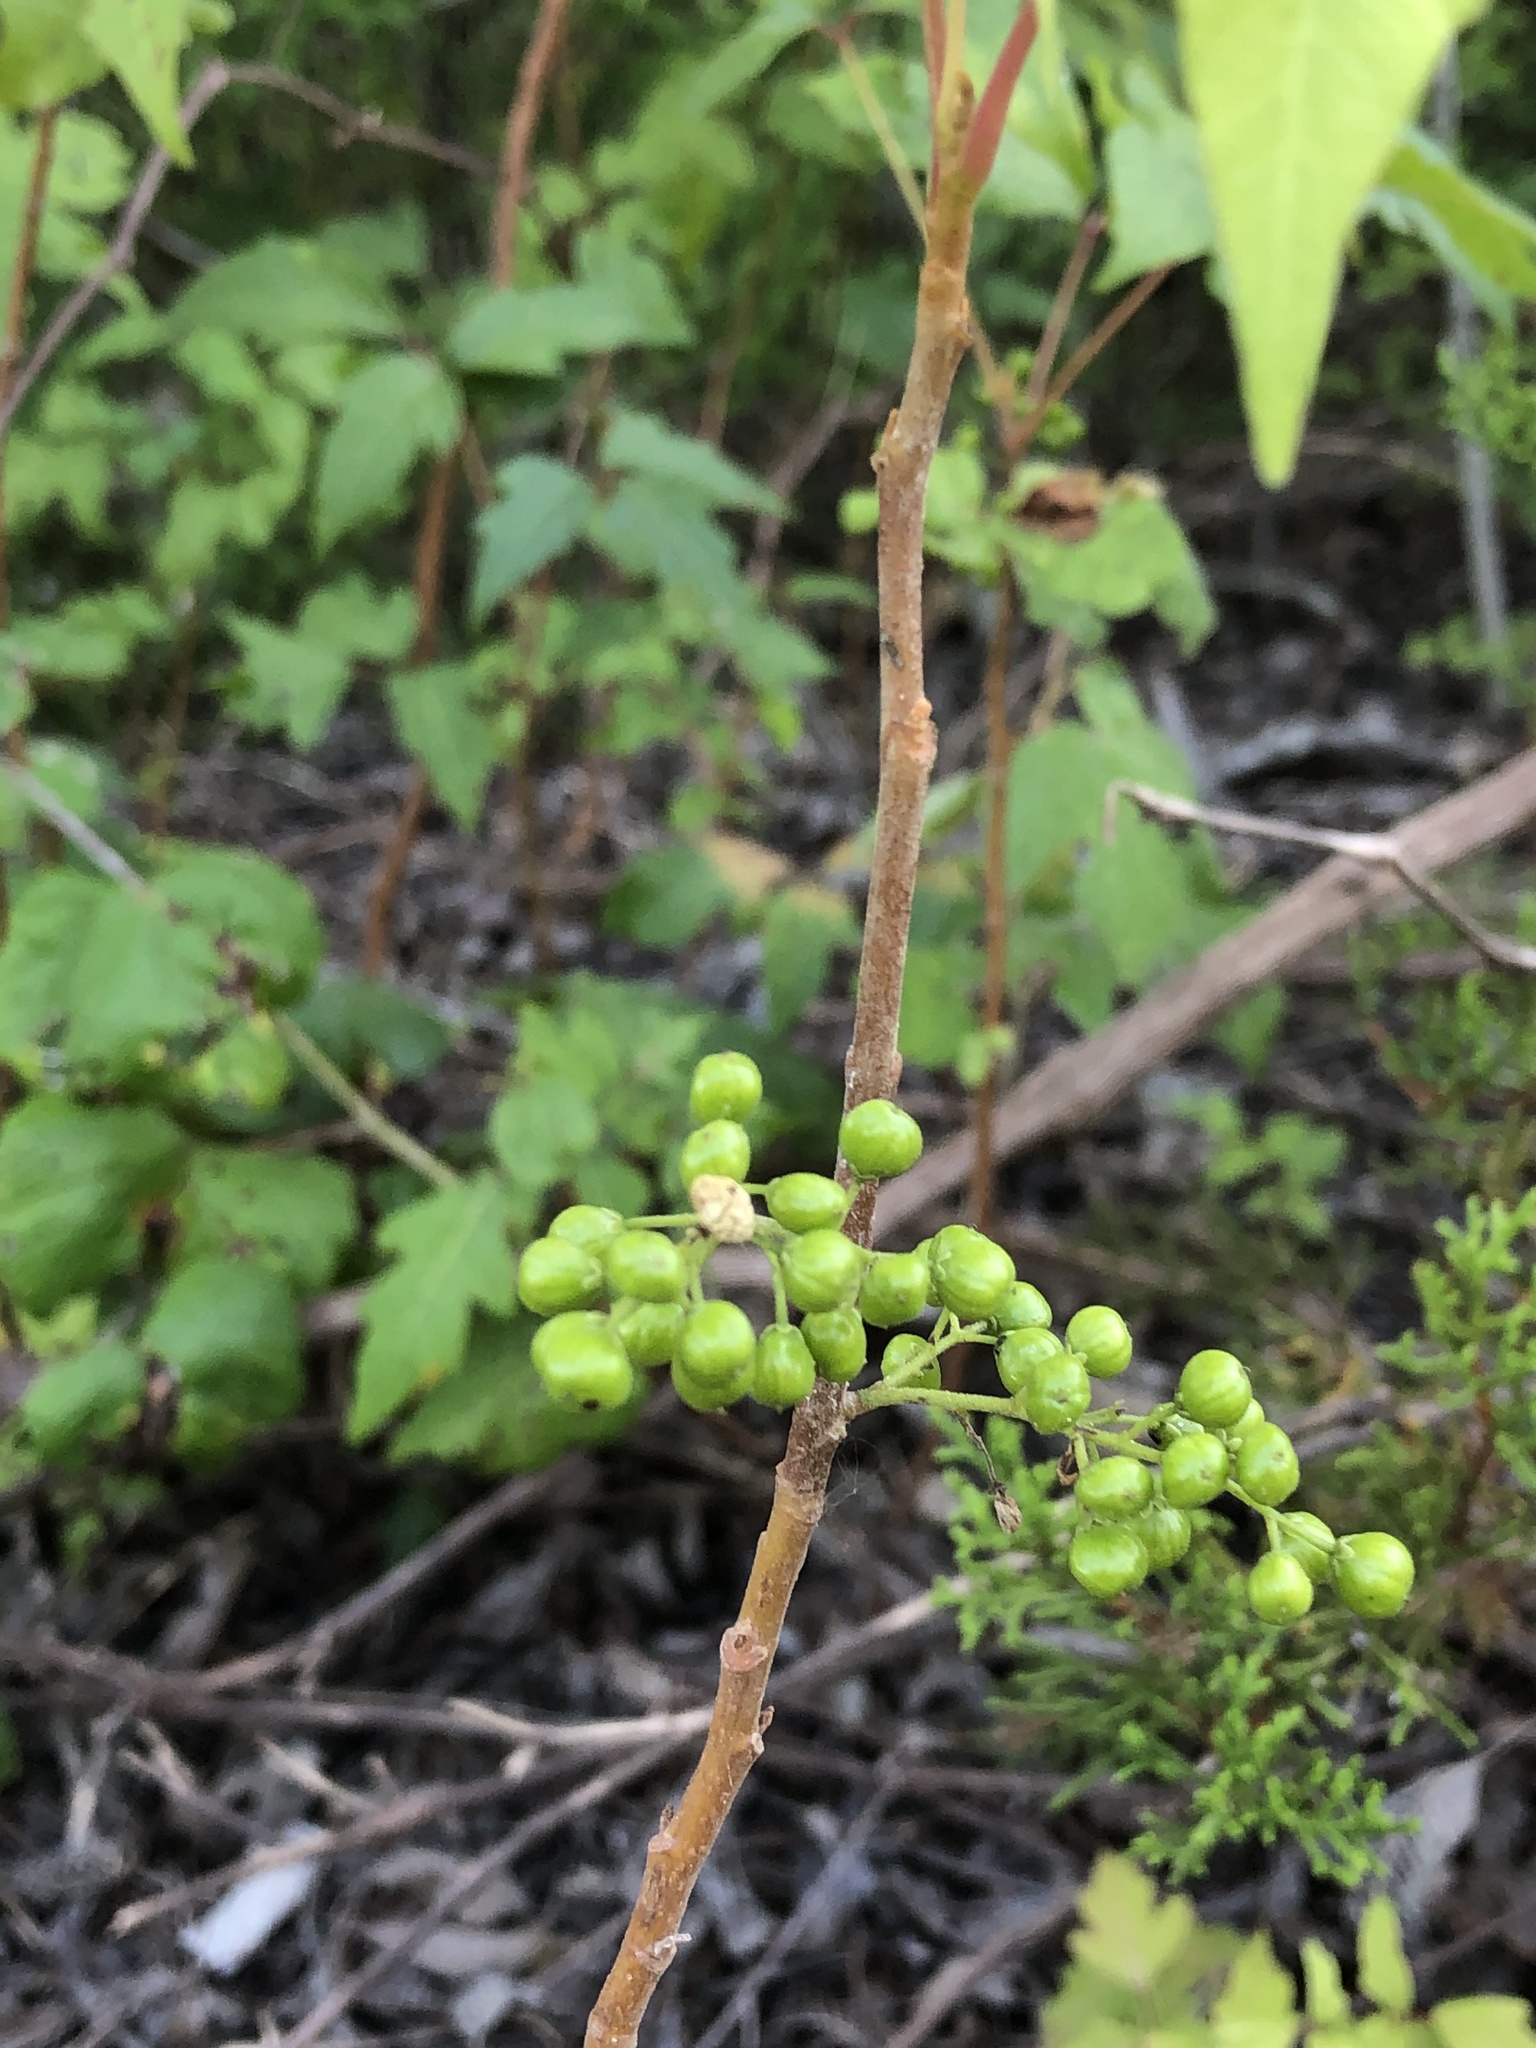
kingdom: Plantae
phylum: Tracheophyta
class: Magnoliopsida
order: Sapindales
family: Anacardiaceae
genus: Toxicodendron
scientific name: Toxicodendron radicans
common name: Poison ivy
